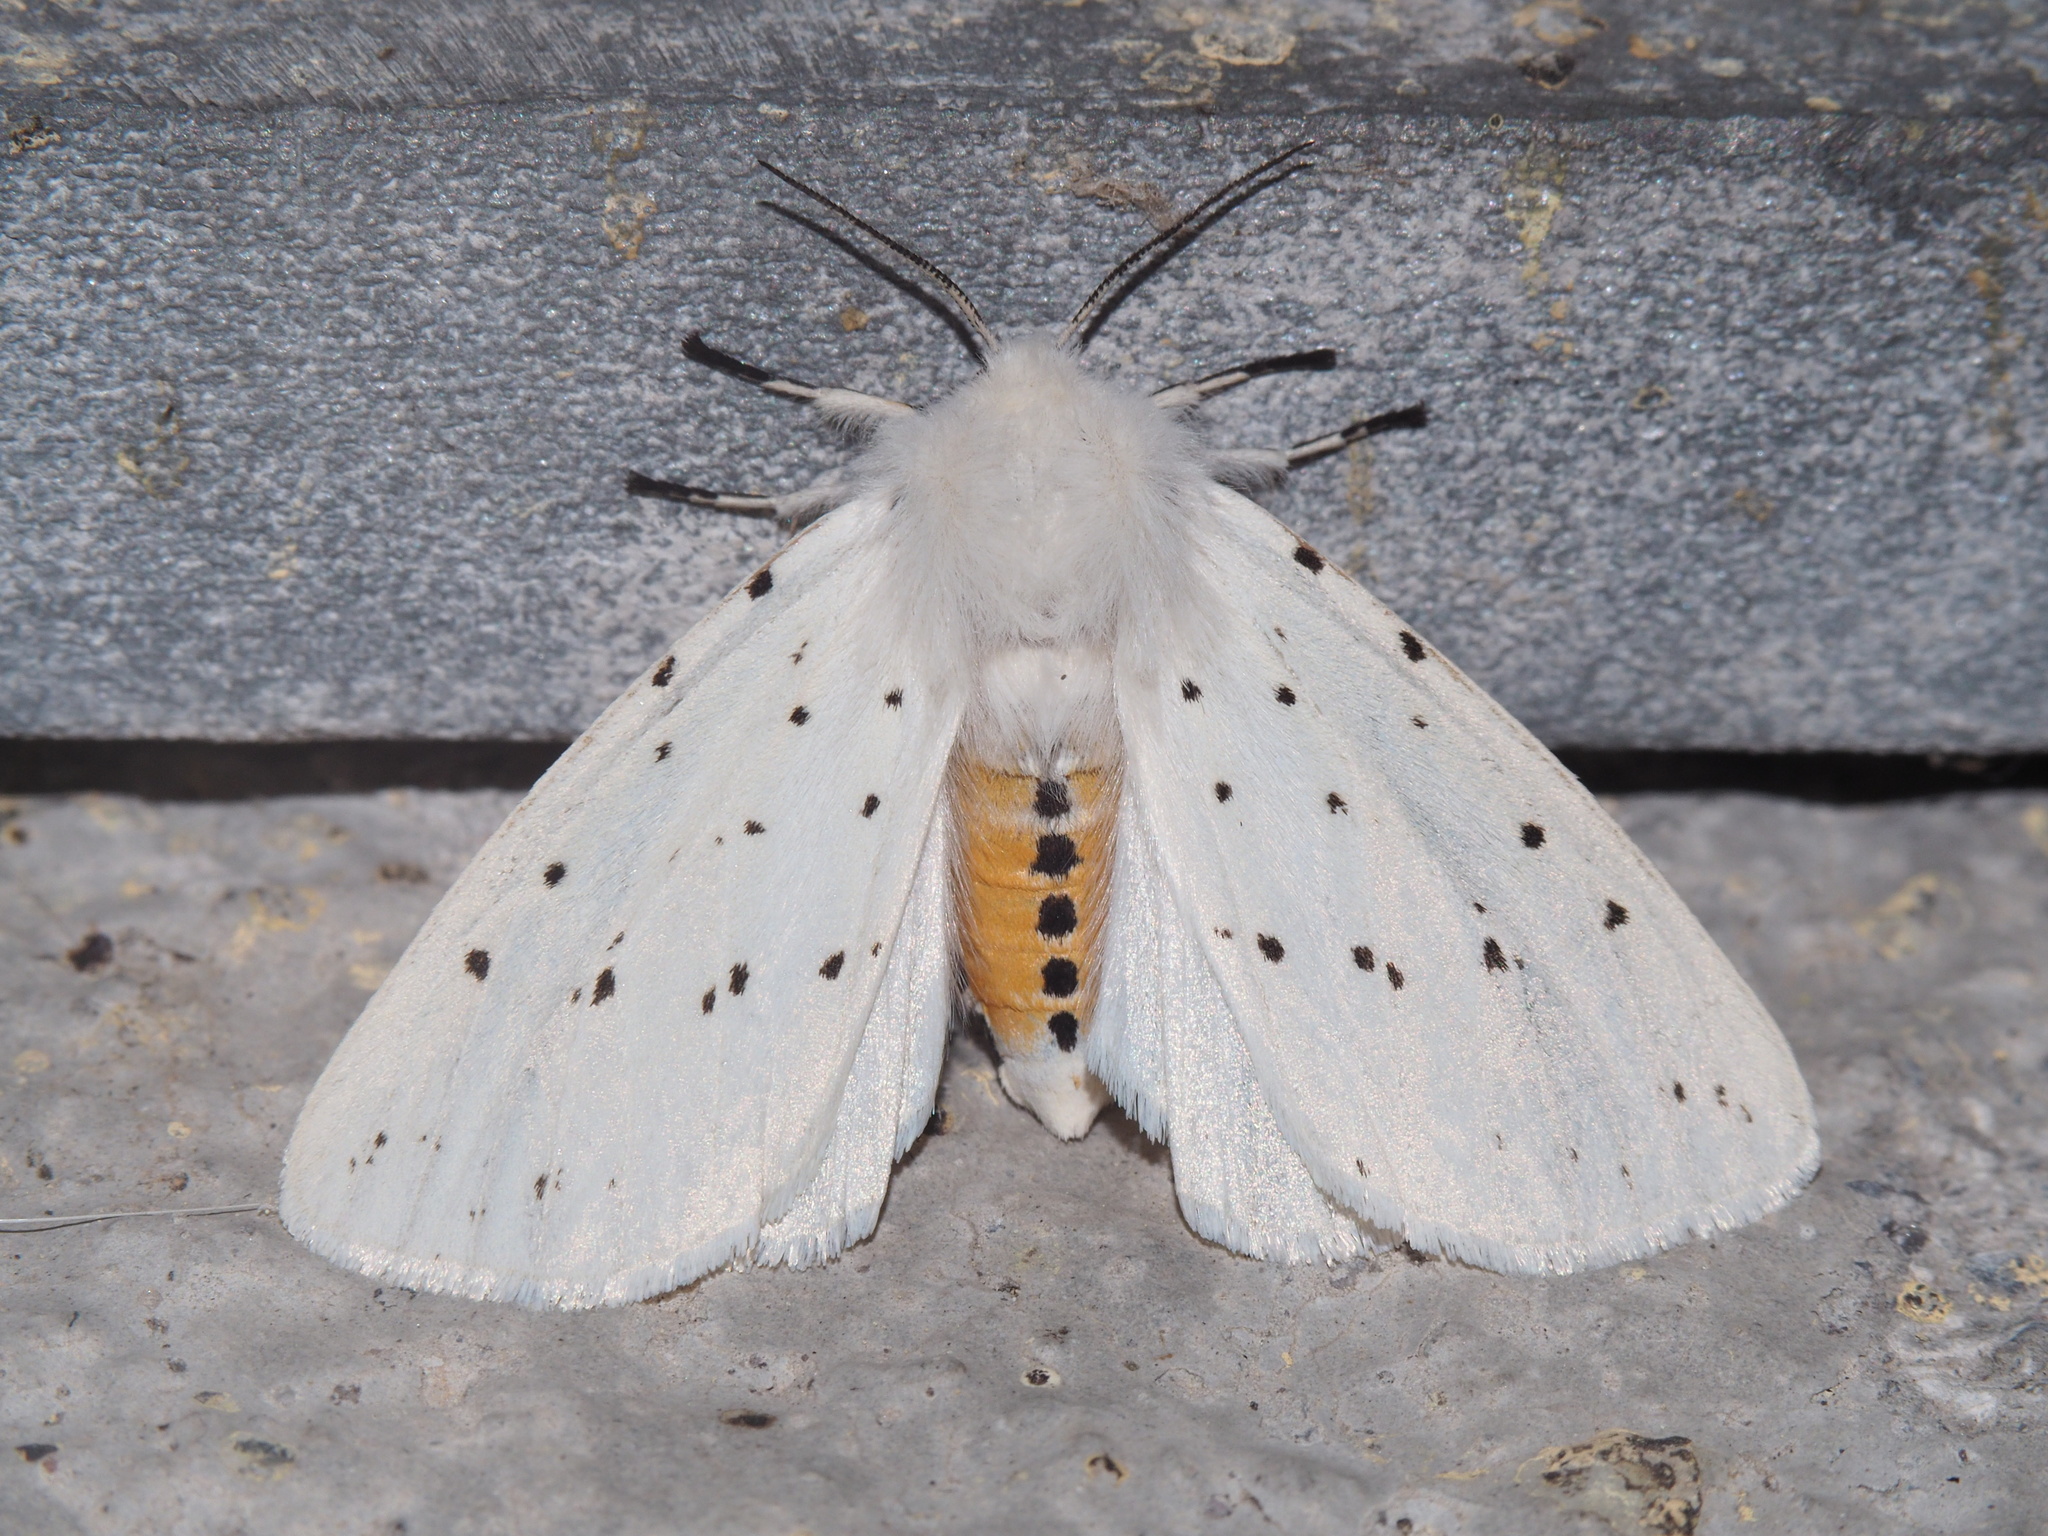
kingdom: Animalia
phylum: Arthropoda
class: Insecta
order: Lepidoptera
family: Erebidae
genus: Spilosoma
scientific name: Spilosoma lubricipeda
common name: White ermine
